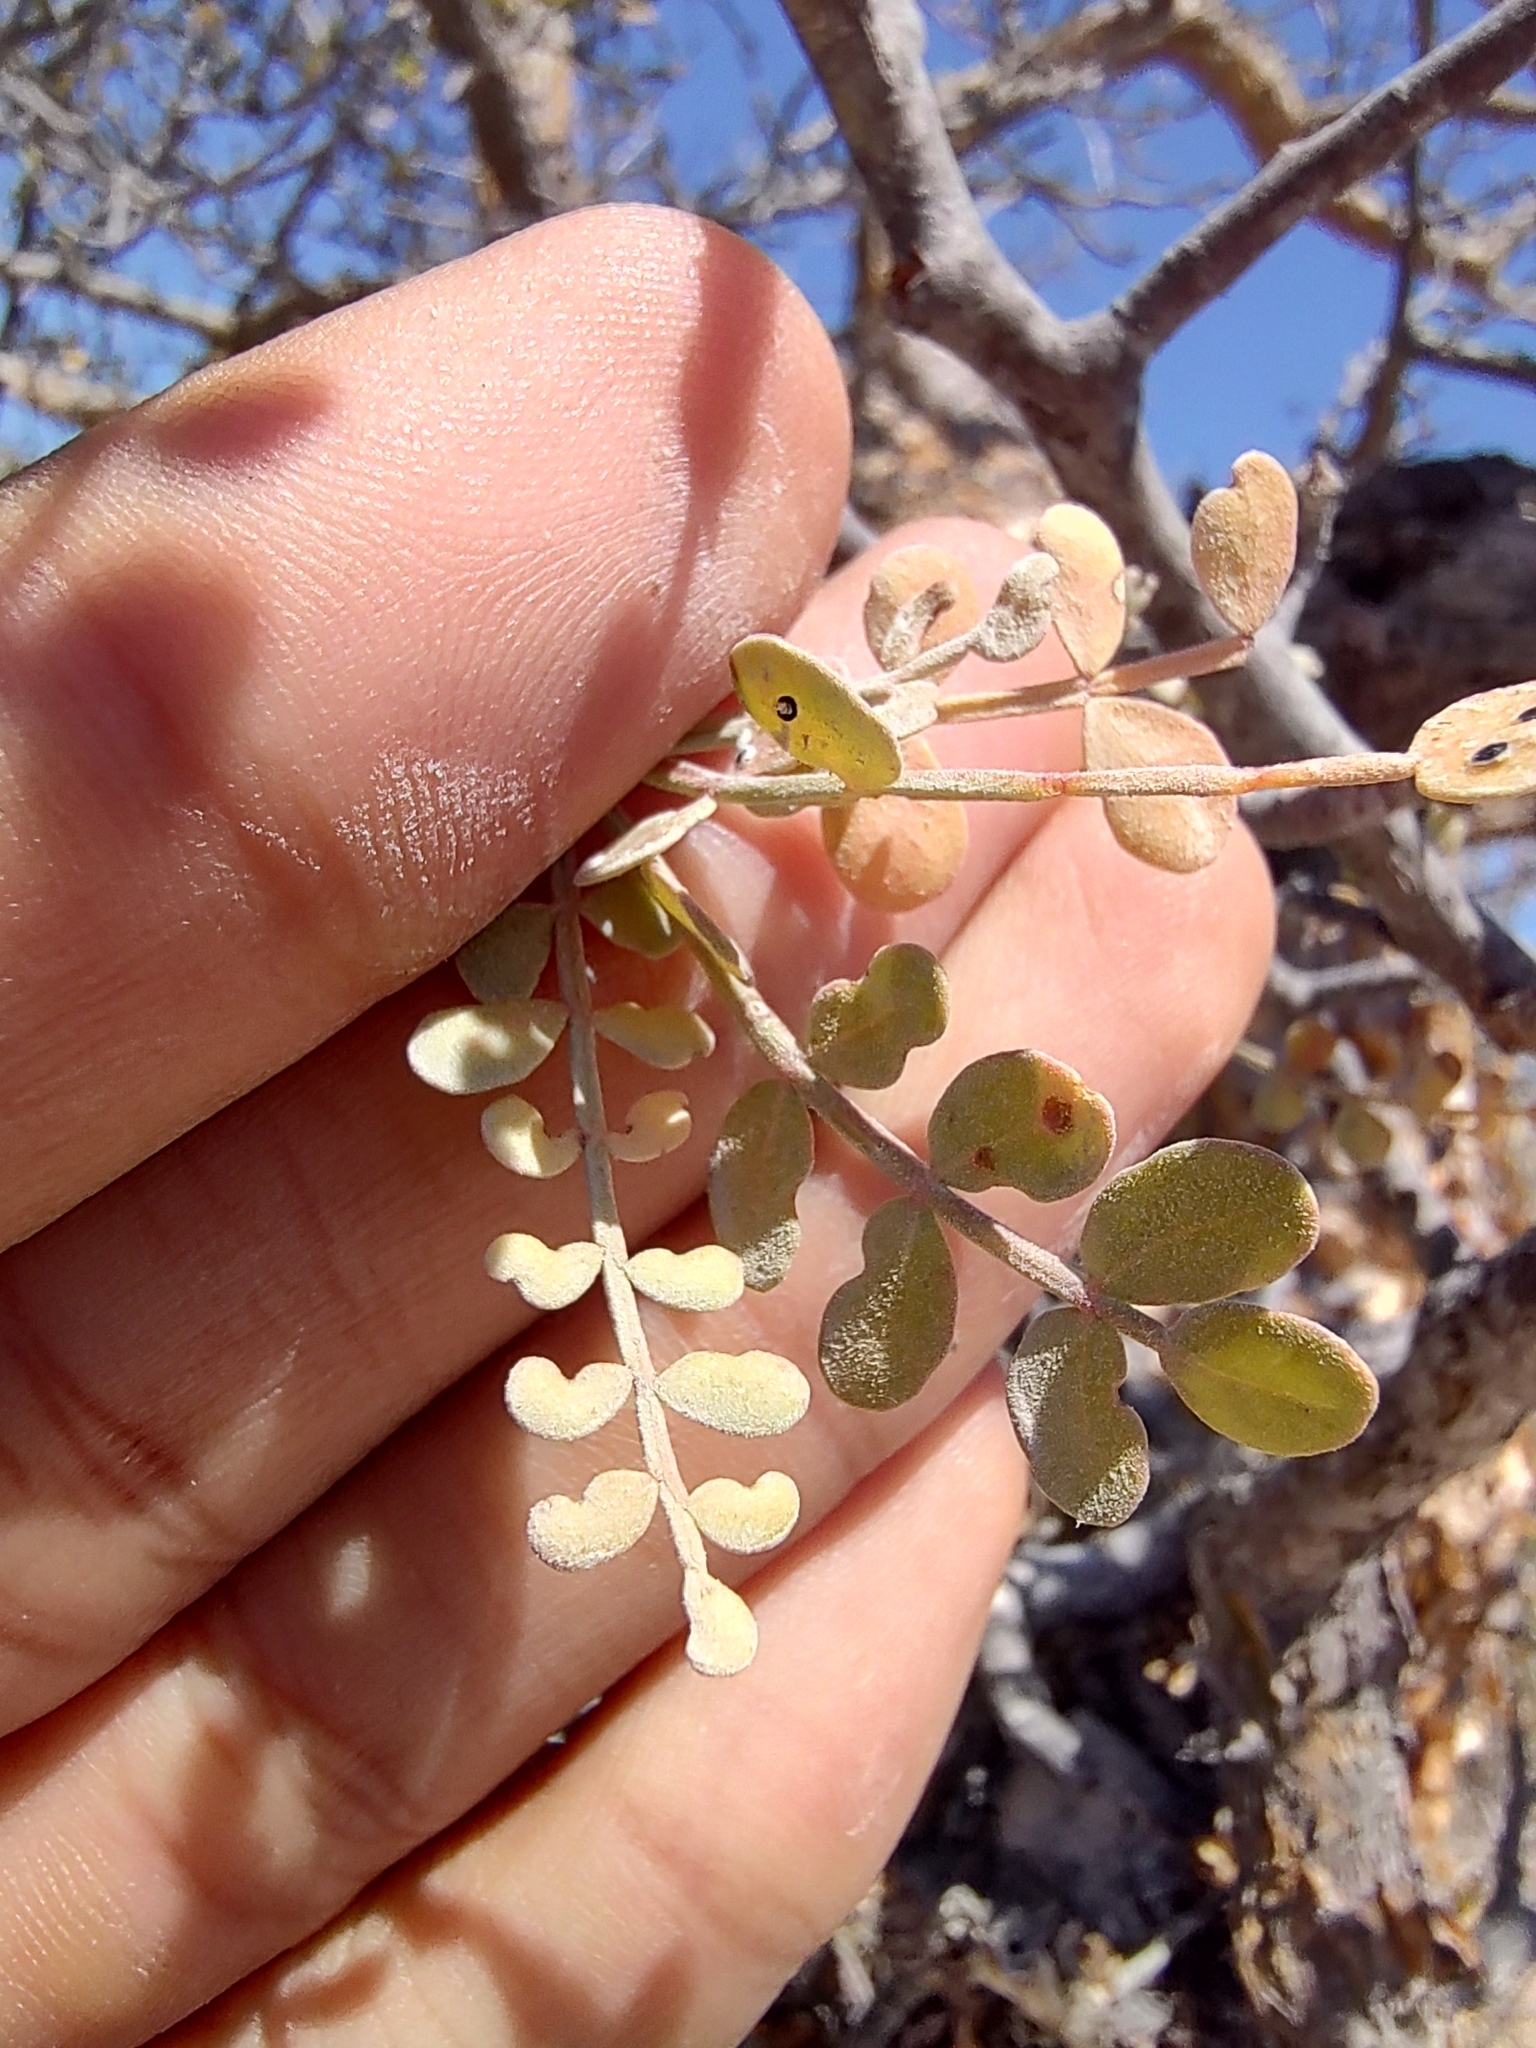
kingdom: Plantae
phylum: Tracheophyta
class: Magnoliopsida
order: Sapindales
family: Burseraceae
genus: Bursera
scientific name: Bursera exequielii
